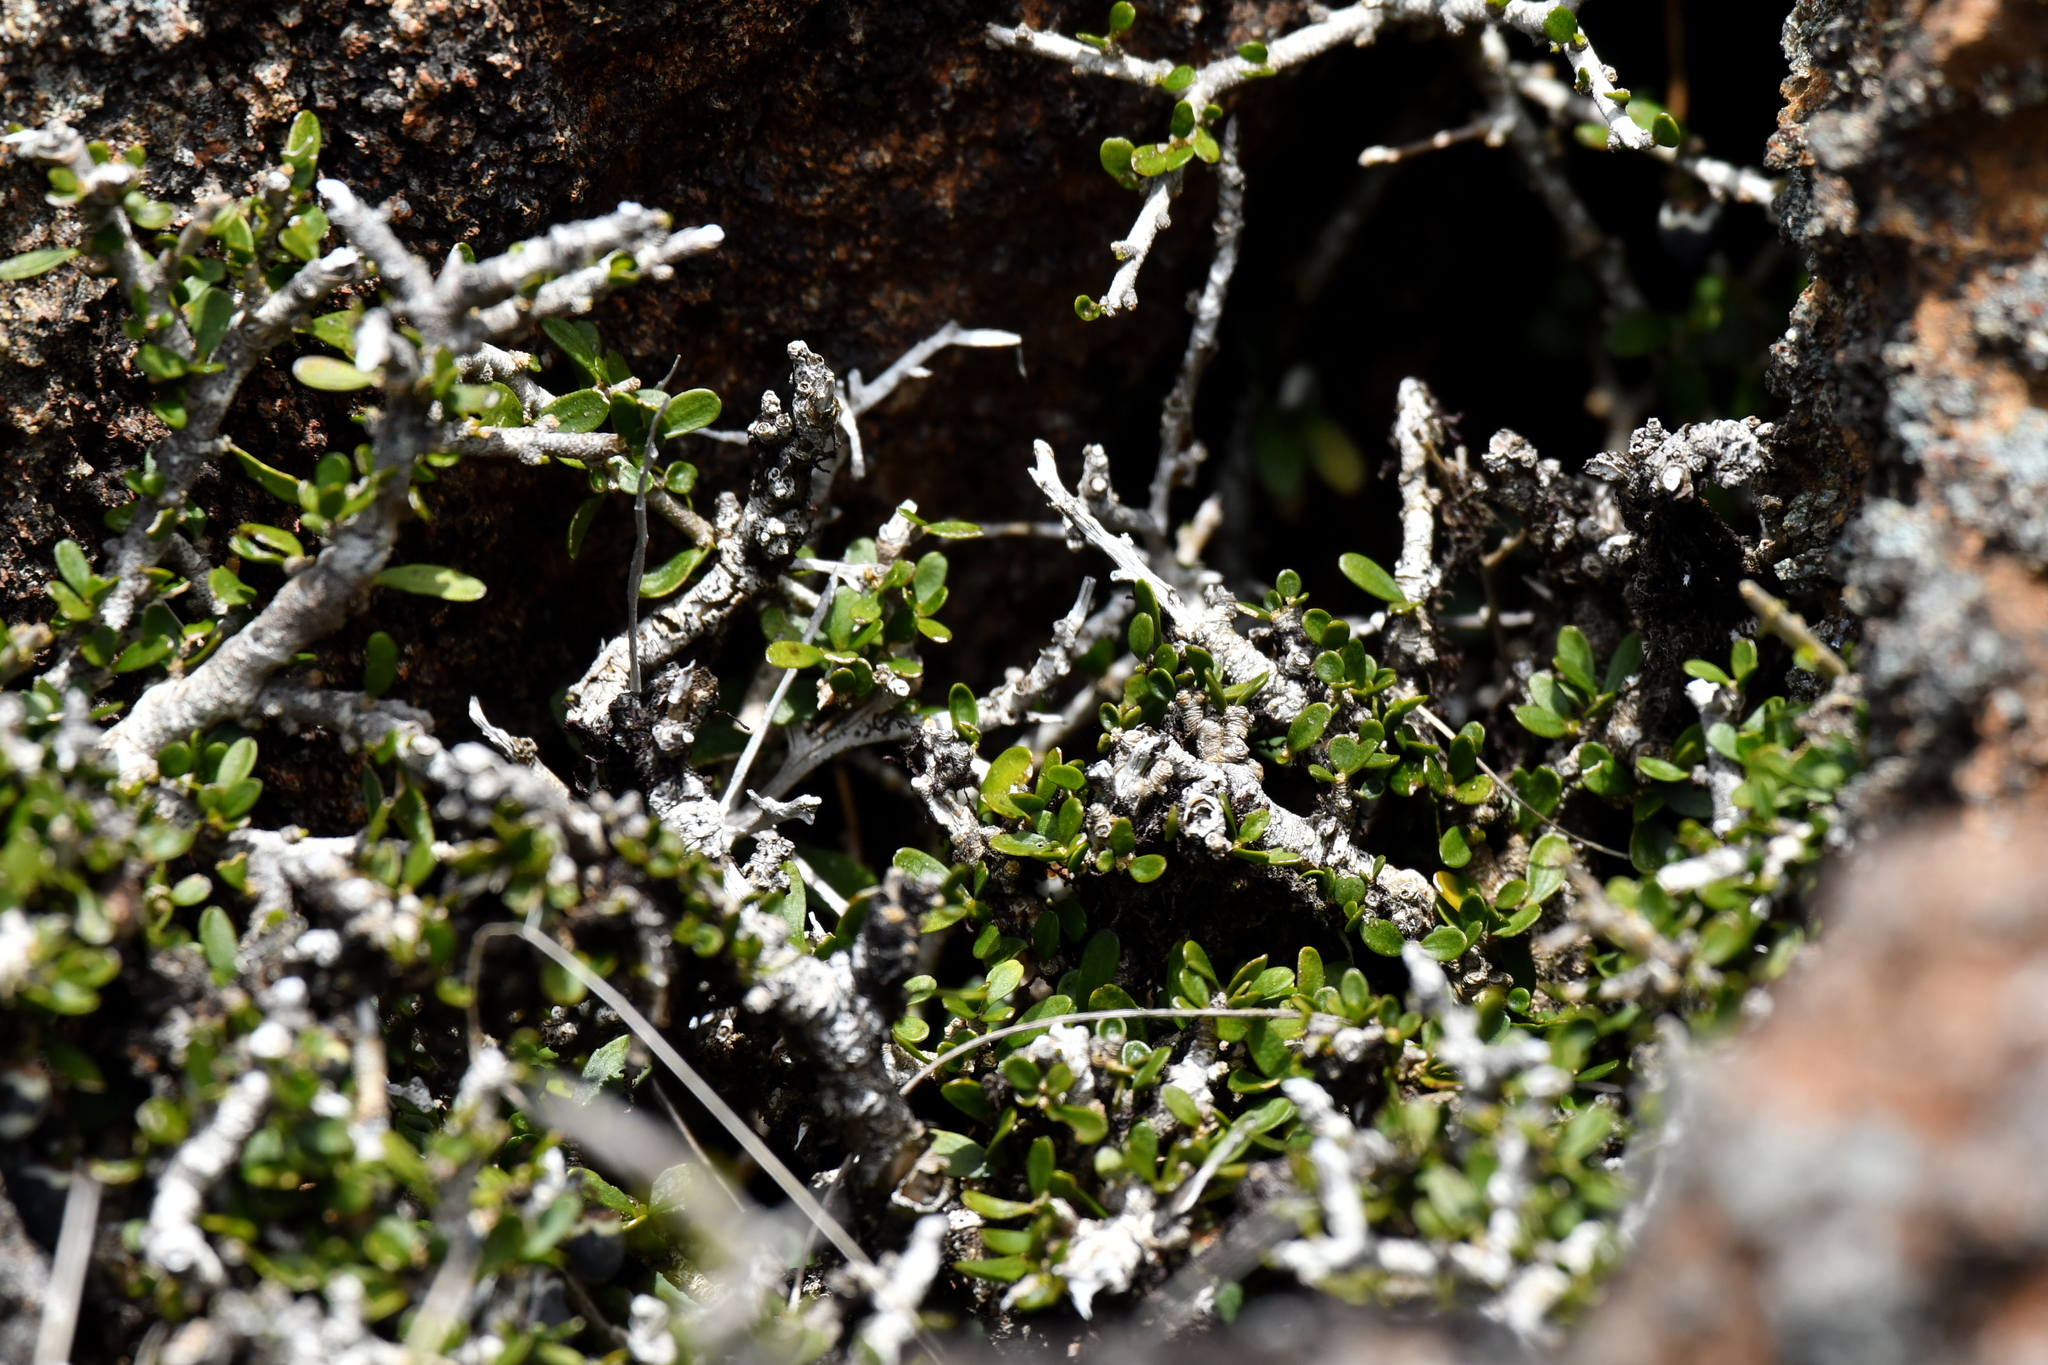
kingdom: Plantae
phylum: Tracheophyta
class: Magnoliopsida
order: Malpighiales
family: Violaceae
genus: Melicytus
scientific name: Melicytus alpinus
